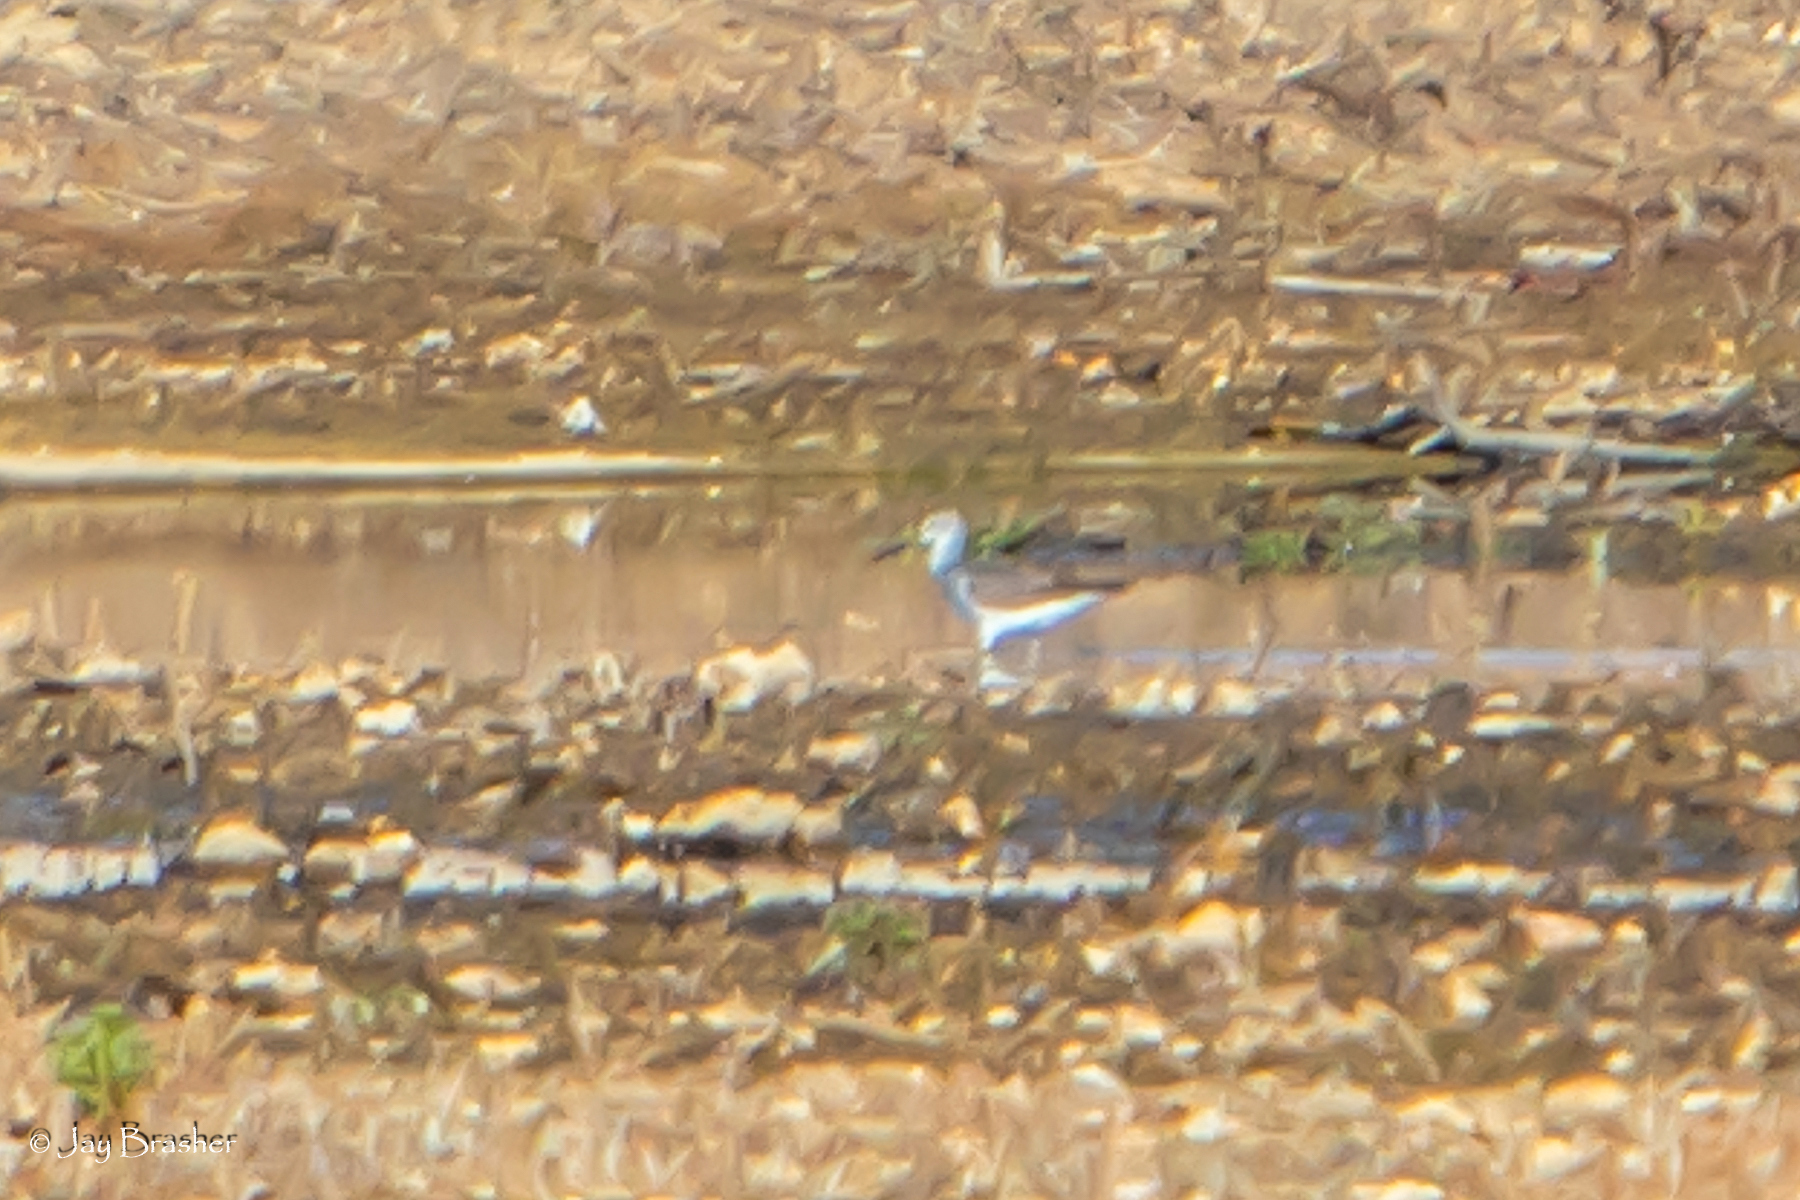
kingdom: Animalia
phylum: Chordata
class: Aves
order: Charadriiformes
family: Scolopacidae
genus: Tringa
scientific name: Tringa melanoleuca
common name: Greater yellowlegs
